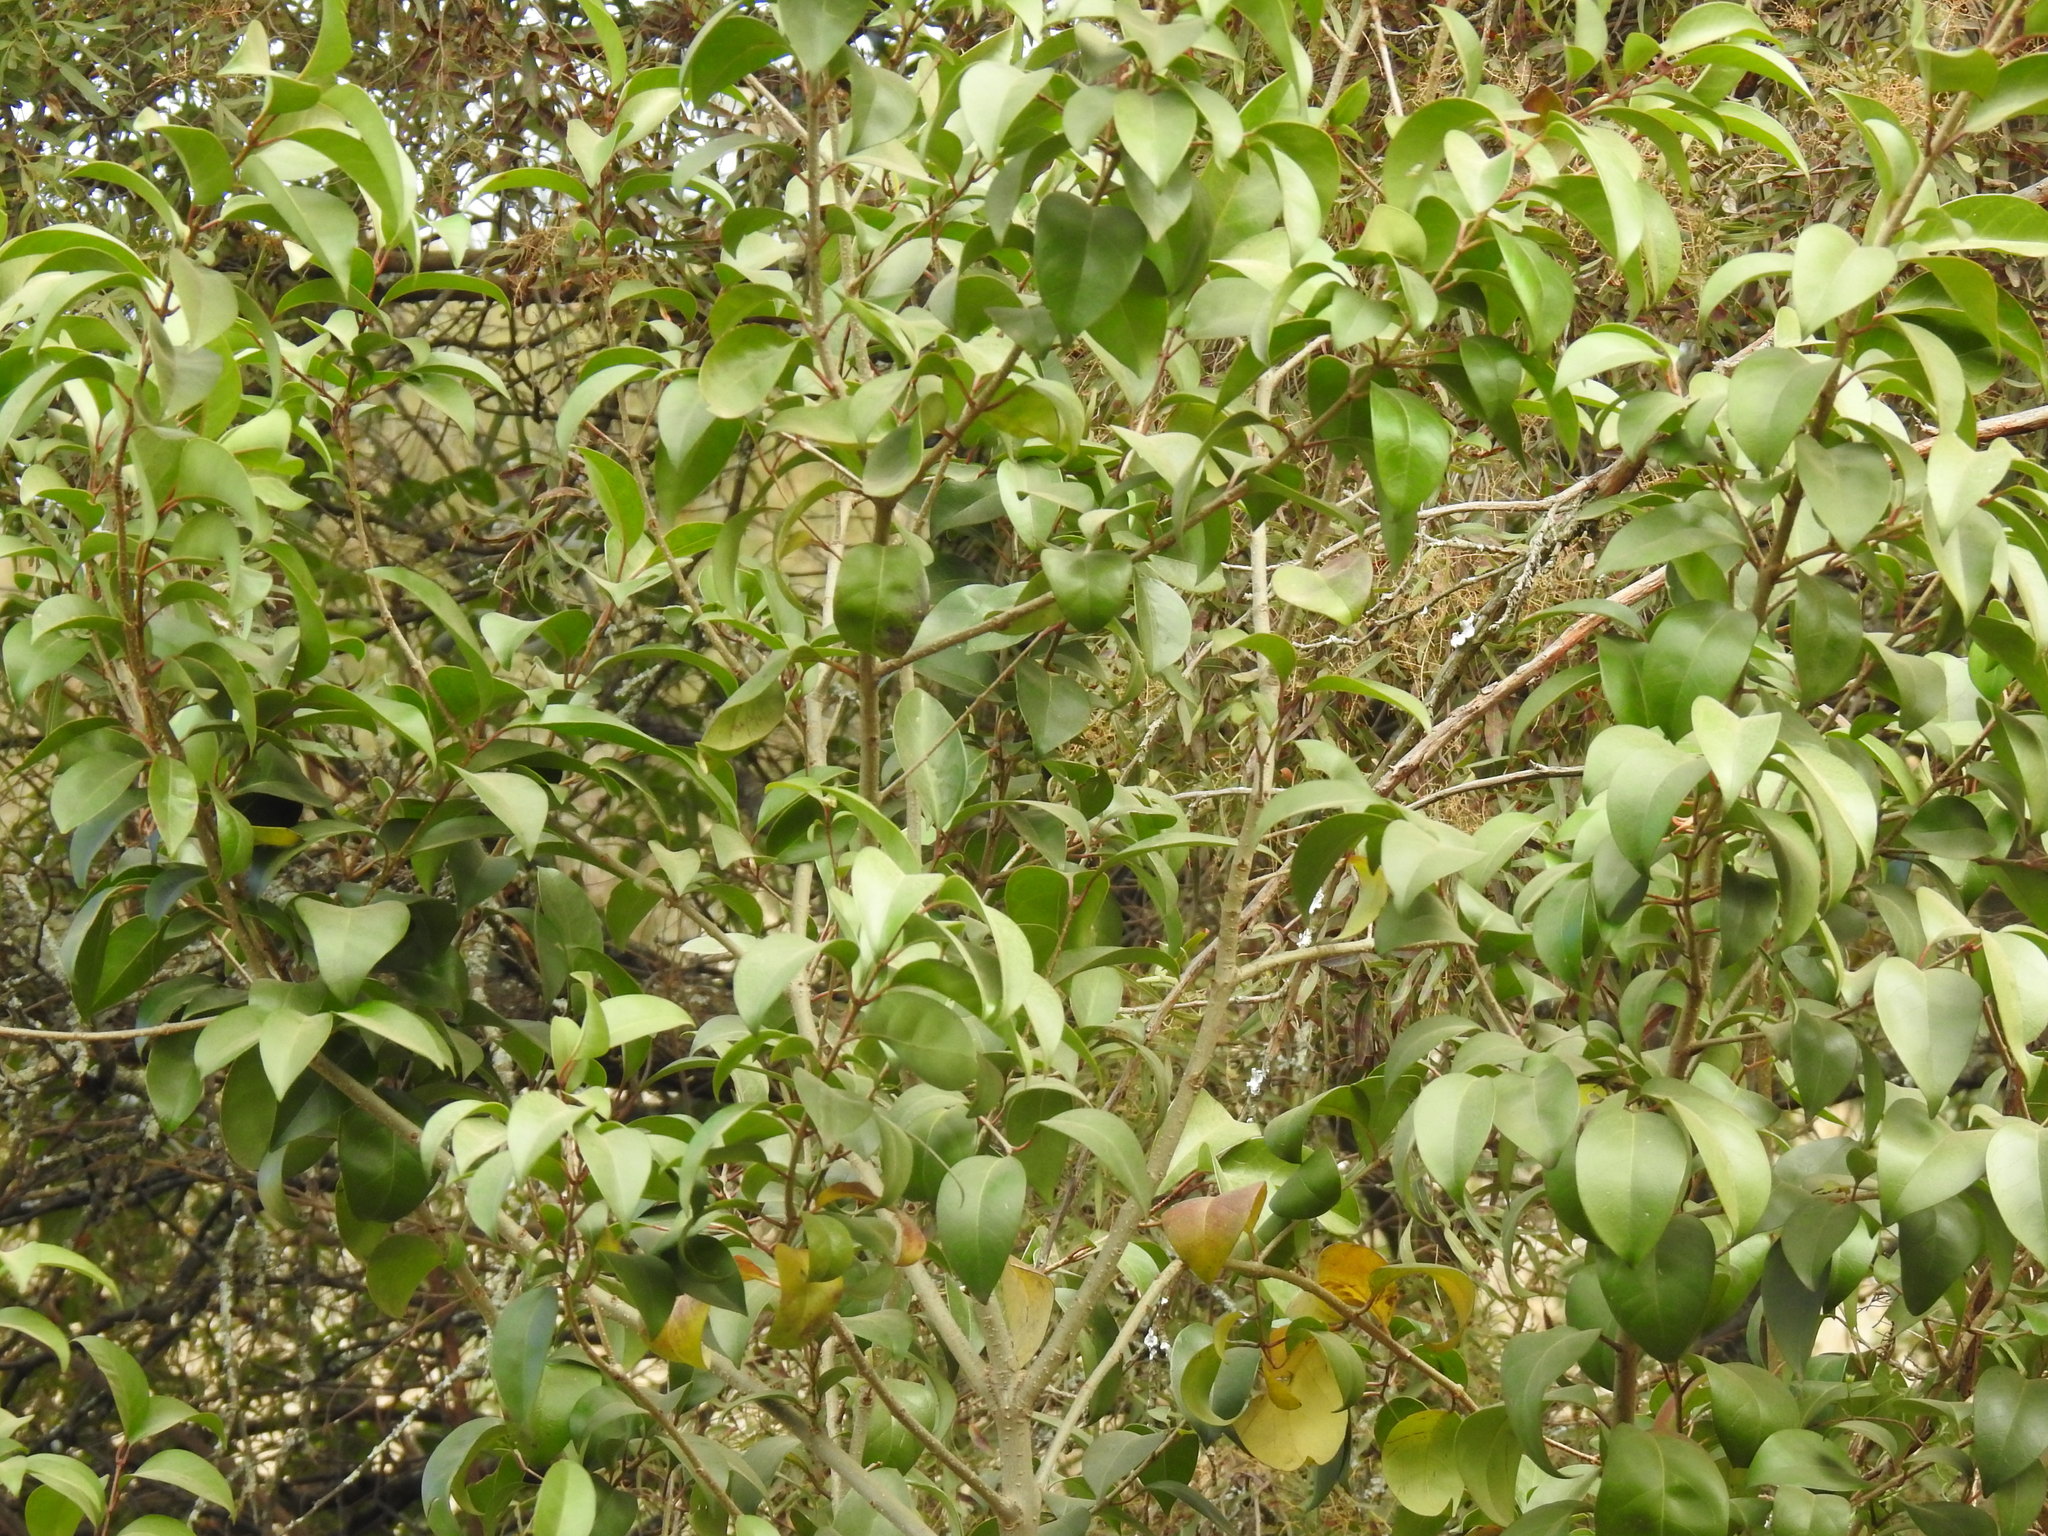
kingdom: Plantae
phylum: Tracheophyta
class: Magnoliopsida
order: Lamiales
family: Oleaceae
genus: Ligustrum
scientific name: Ligustrum lucidum
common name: Glossy privet
